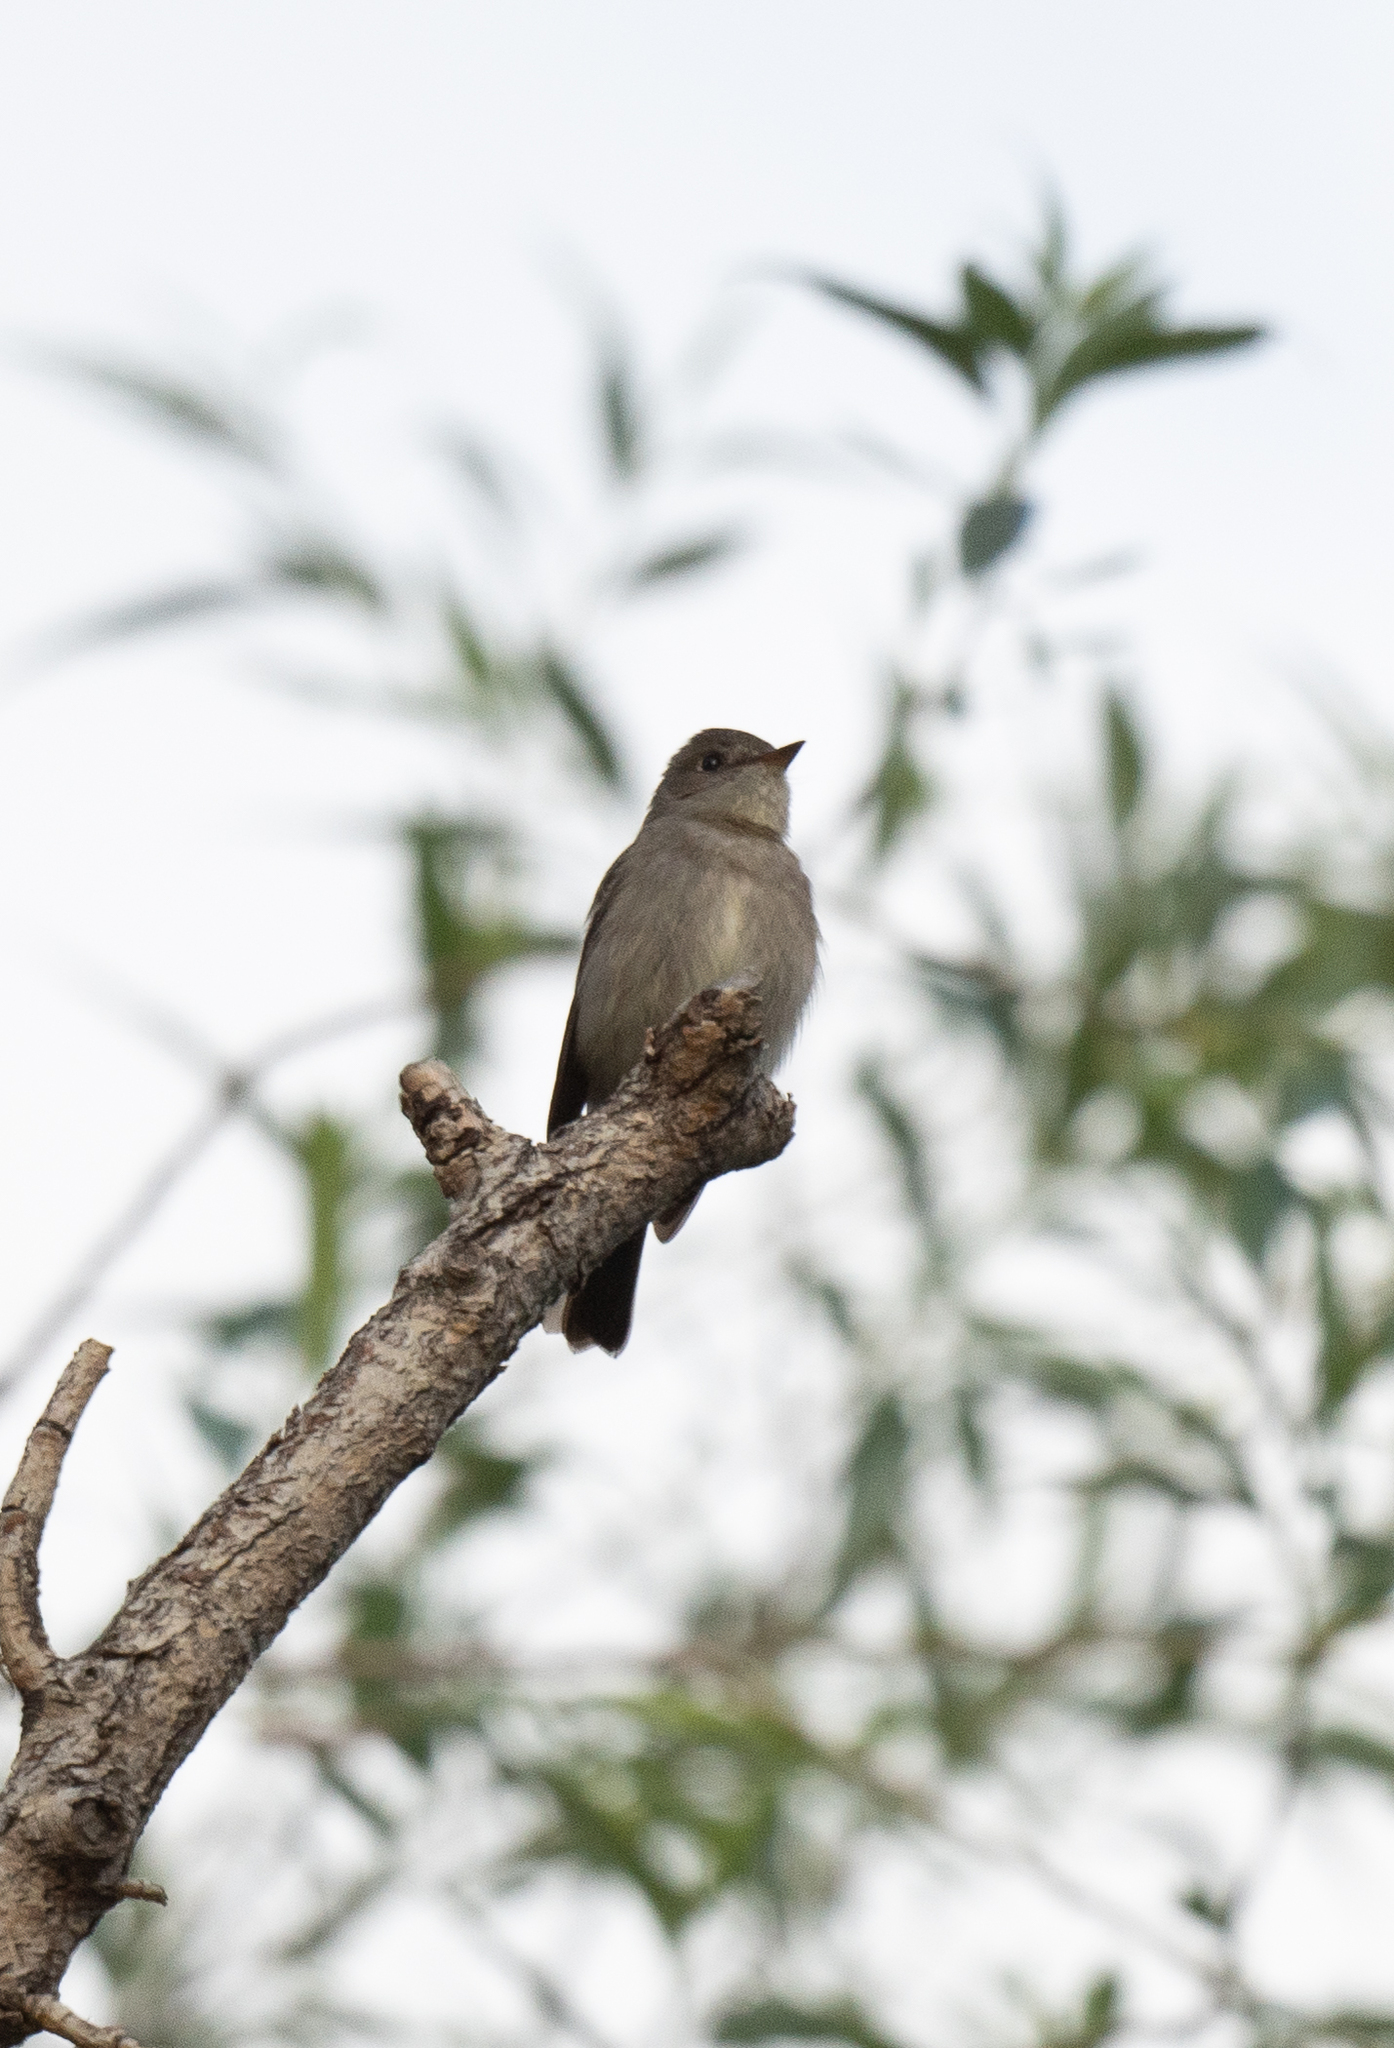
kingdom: Animalia
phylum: Chordata
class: Aves
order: Passeriformes
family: Tyrannidae
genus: Contopus
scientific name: Contopus sordidulus
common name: Western wood-pewee
